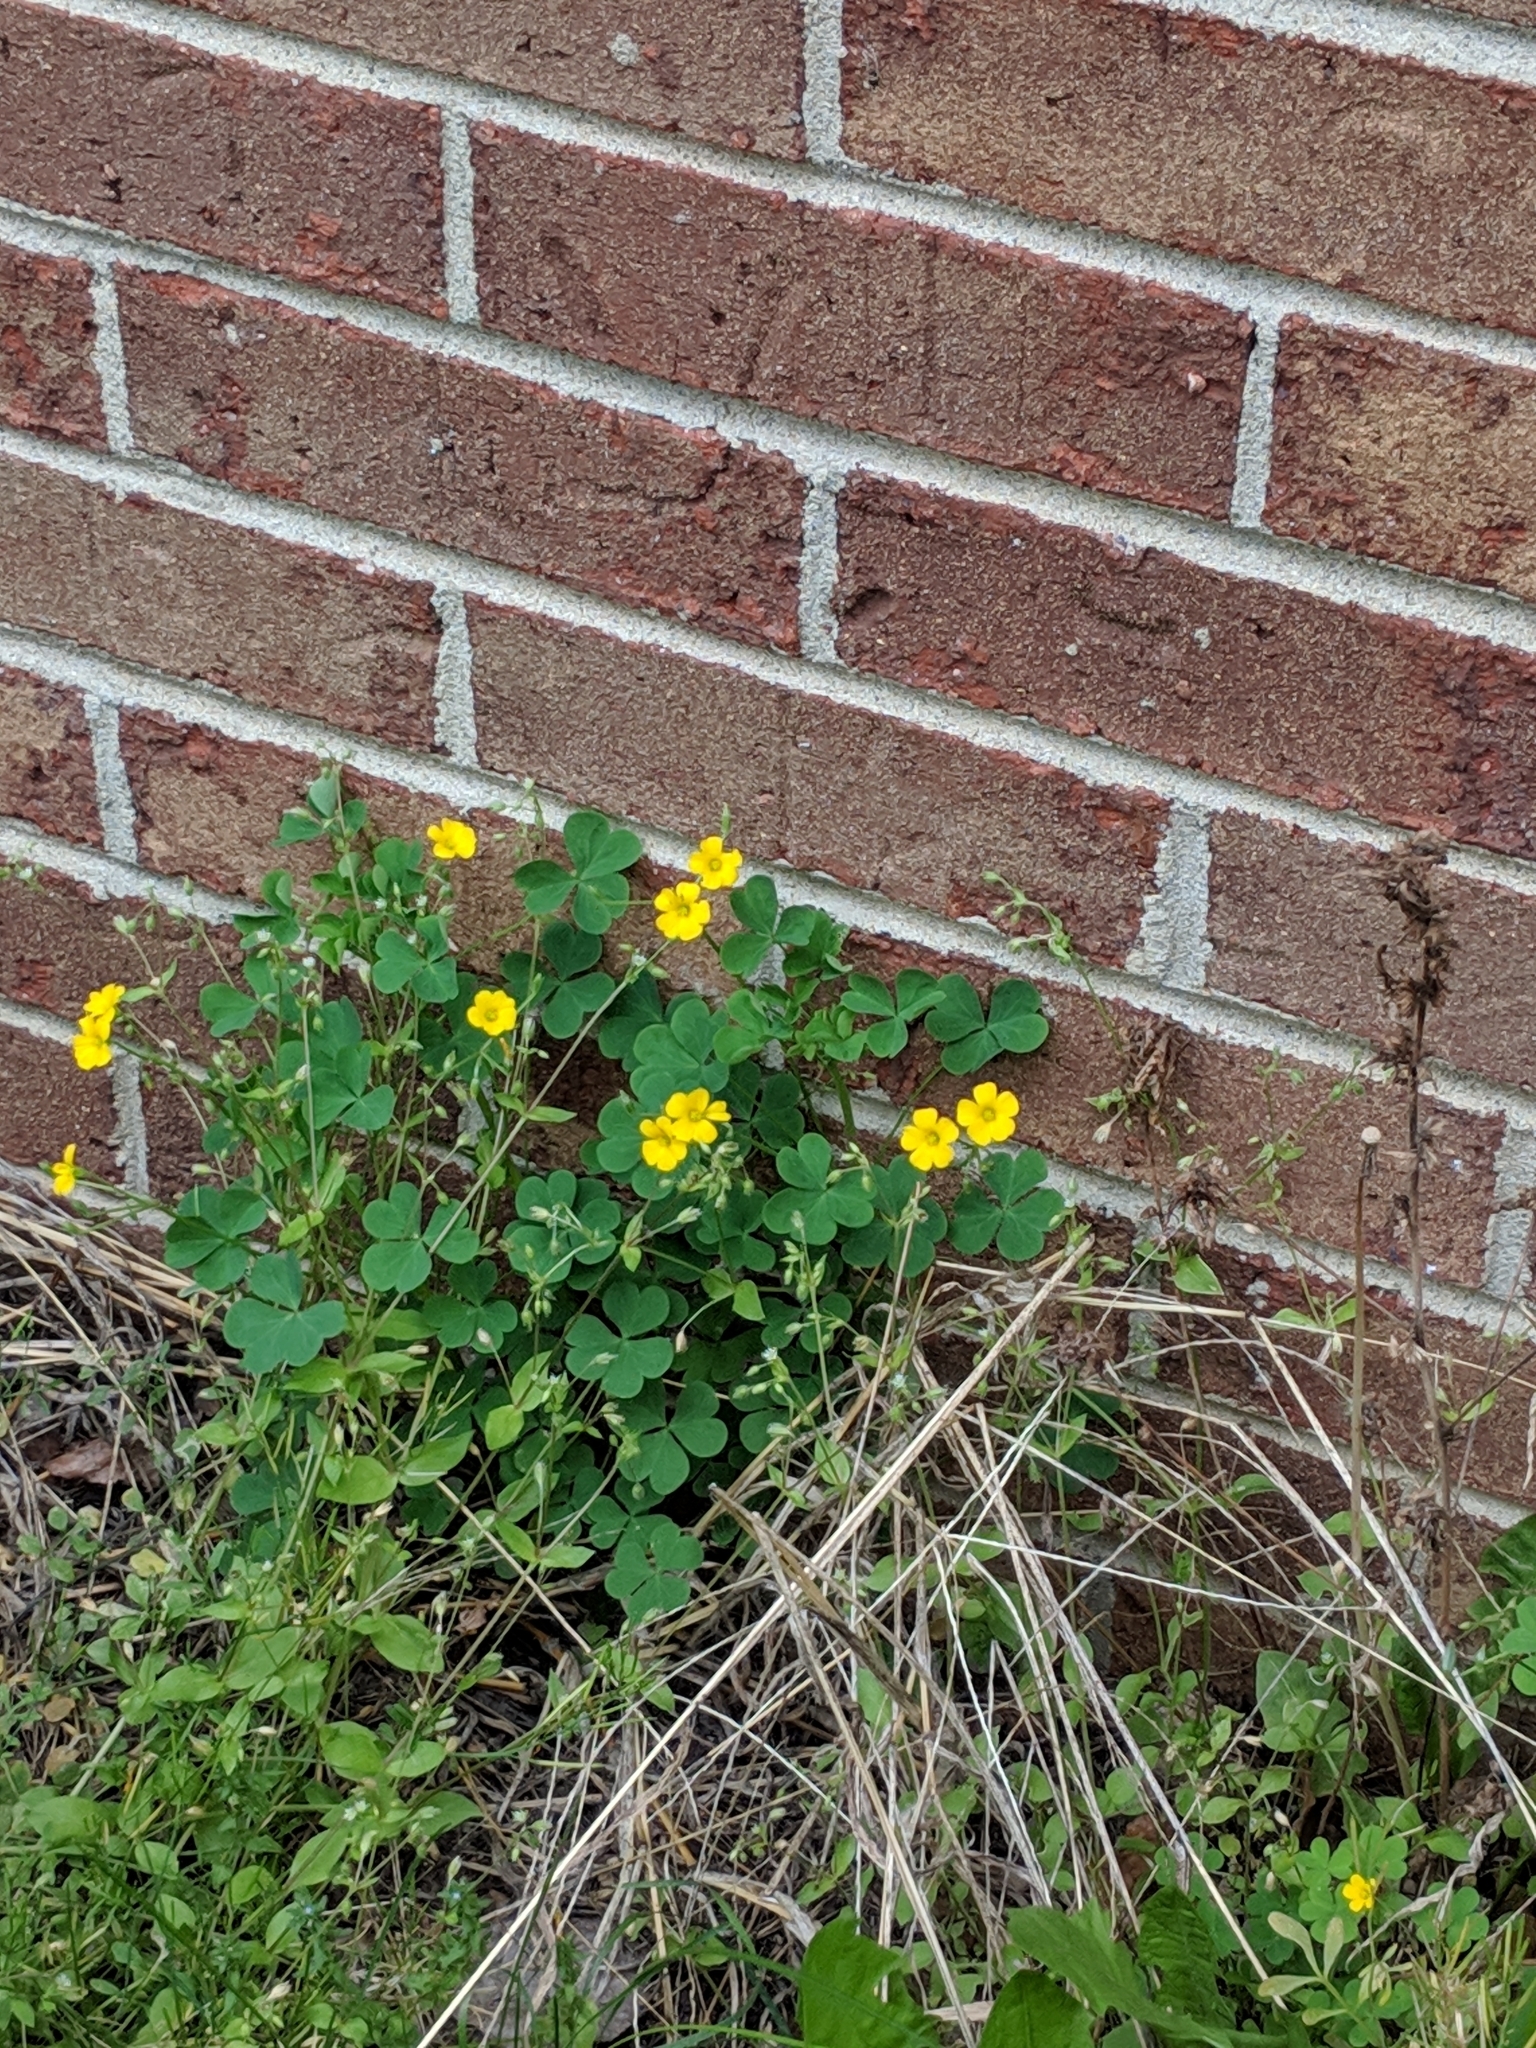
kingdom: Plantae
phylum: Tracheophyta
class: Magnoliopsida
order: Oxalidales
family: Oxalidaceae
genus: Oxalis
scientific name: Oxalis stricta
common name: Upright yellow-sorrel
